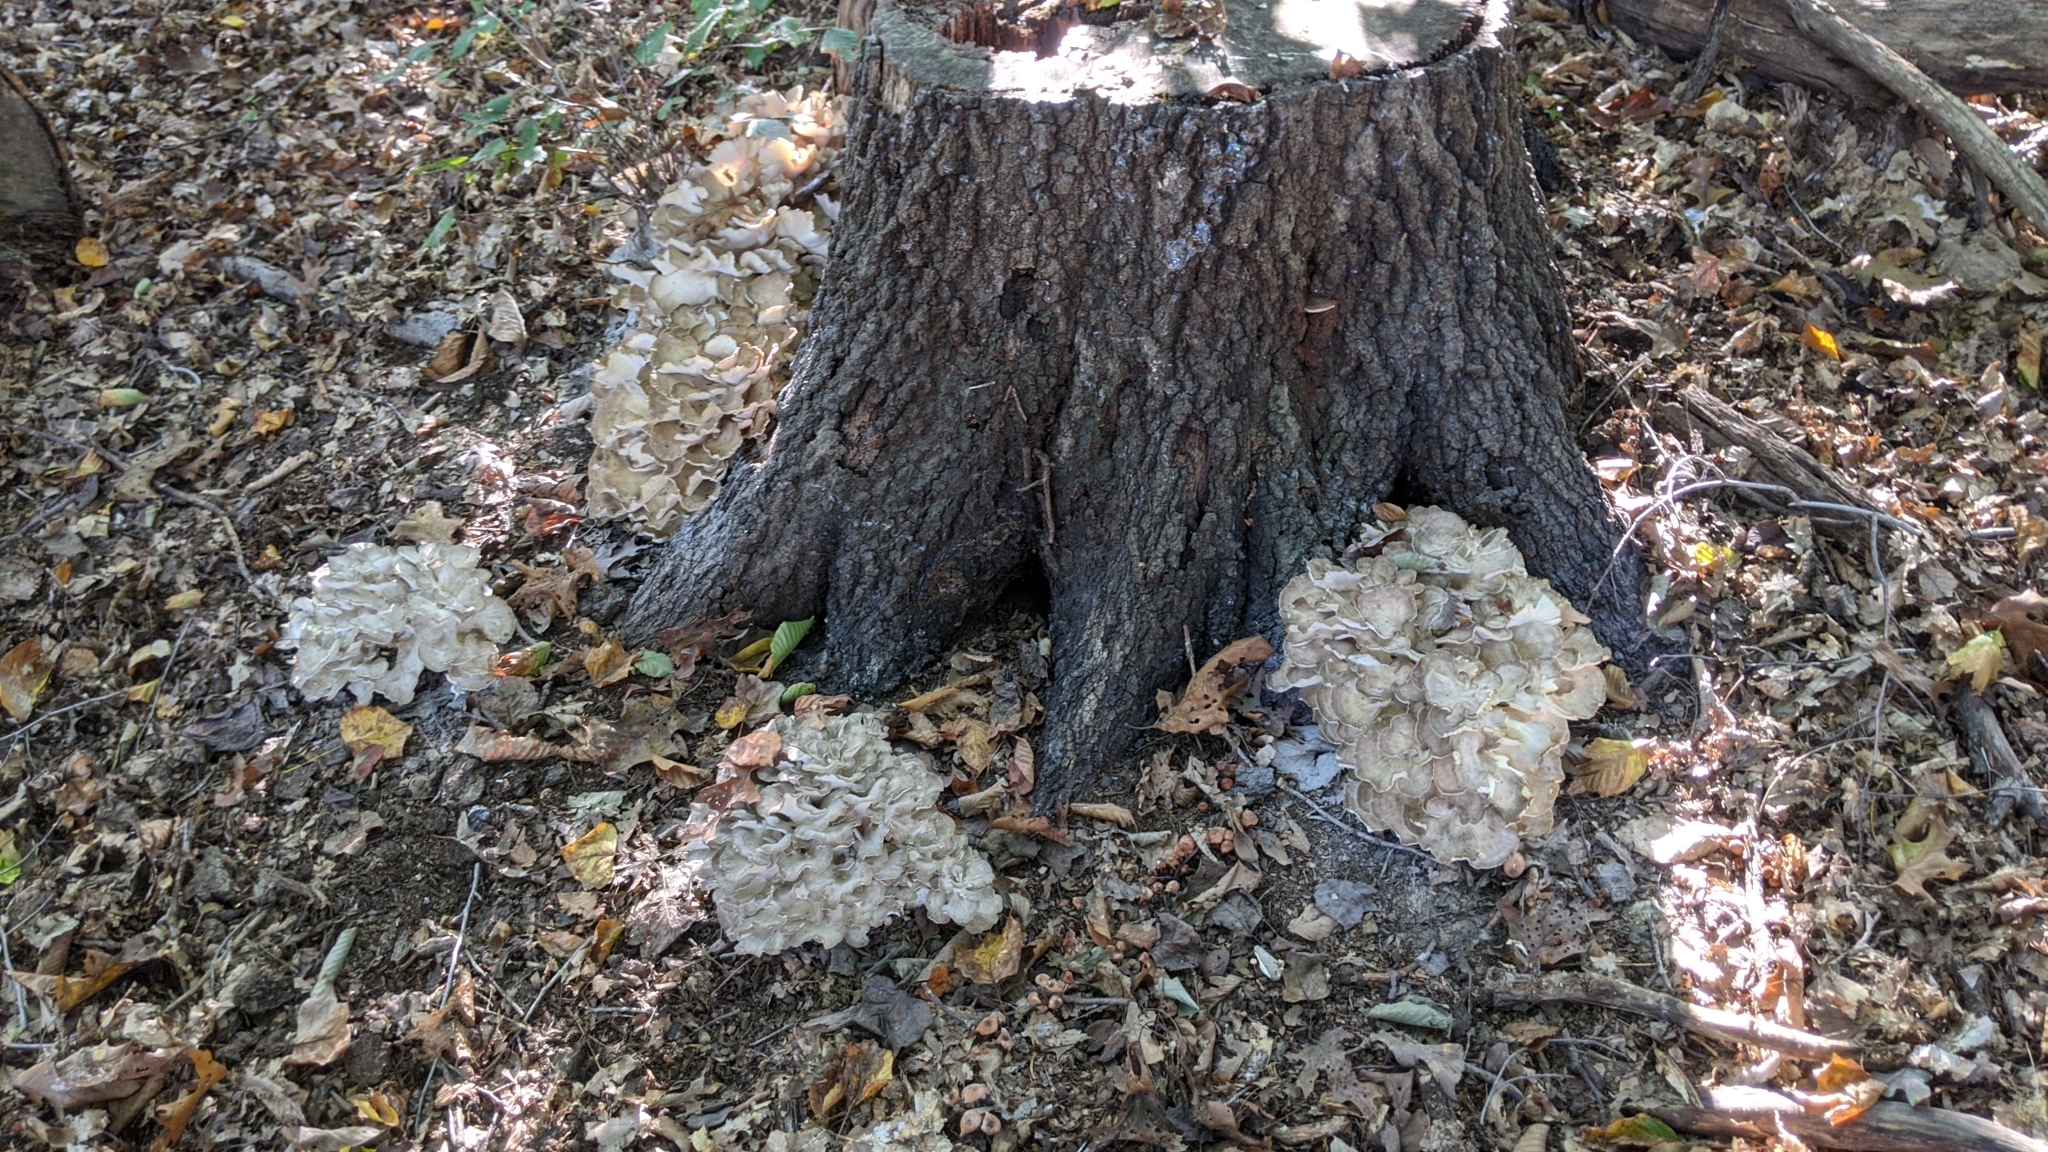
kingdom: Fungi
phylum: Basidiomycota
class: Agaricomycetes
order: Polyporales
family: Grifolaceae
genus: Grifola
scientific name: Grifola frondosa
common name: Hen of the woods
